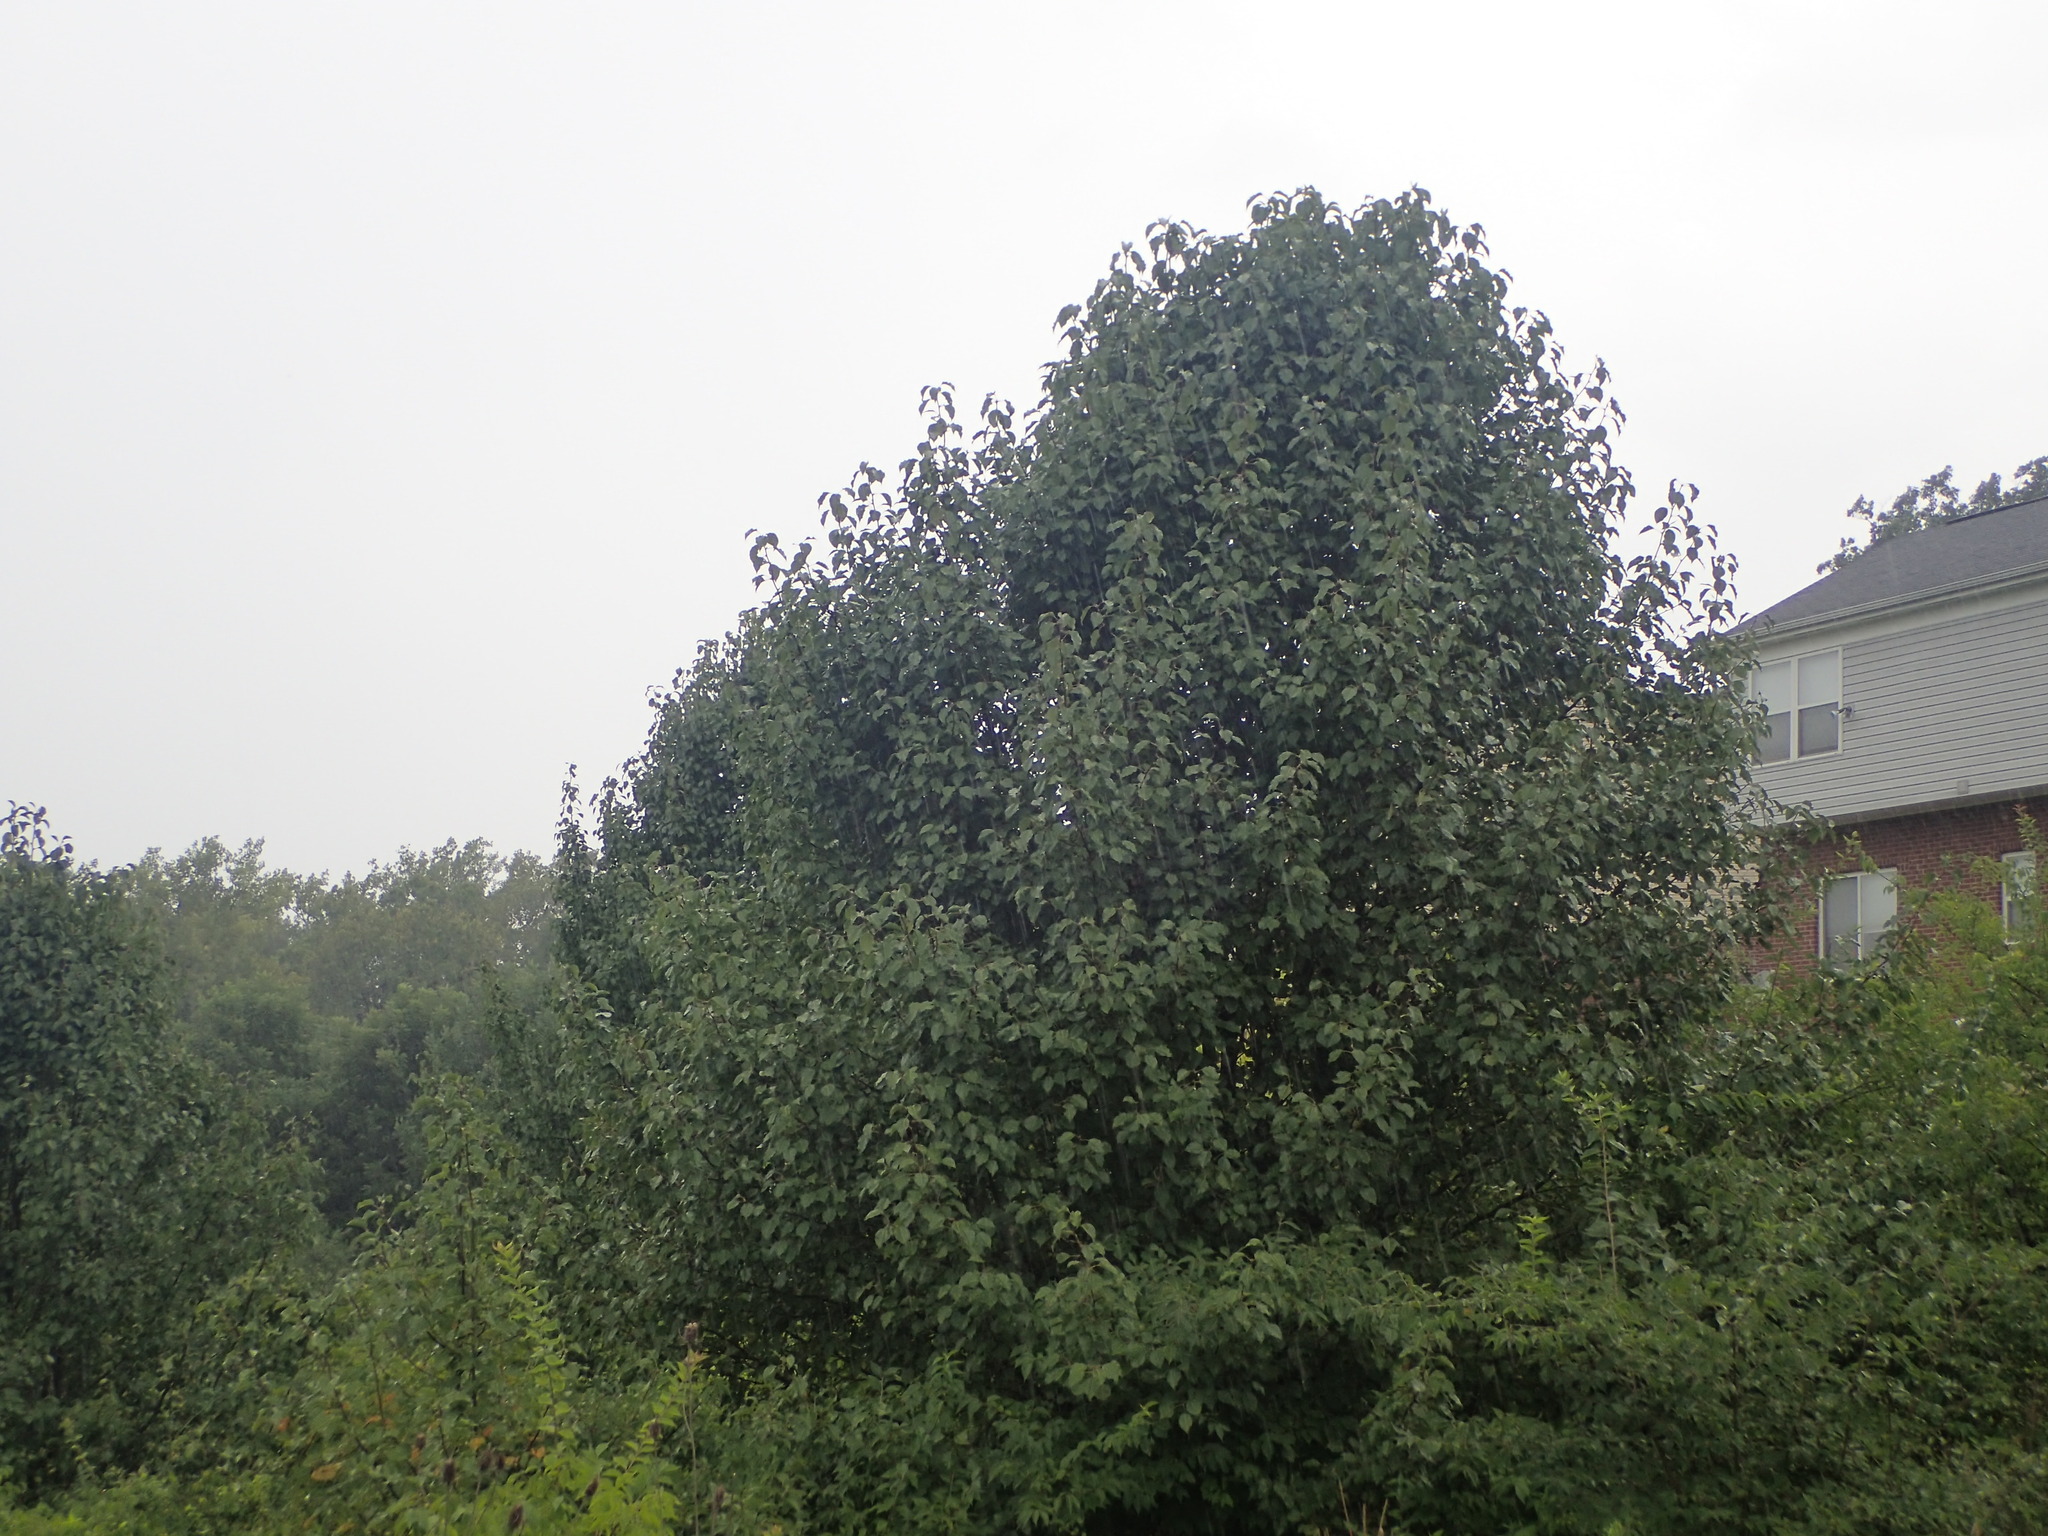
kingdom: Plantae
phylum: Tracheophyta
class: Magnoliopsida
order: Rosales
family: Rosaceae
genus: Pyrus
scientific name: Pyrus calleryana
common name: Callery pear
